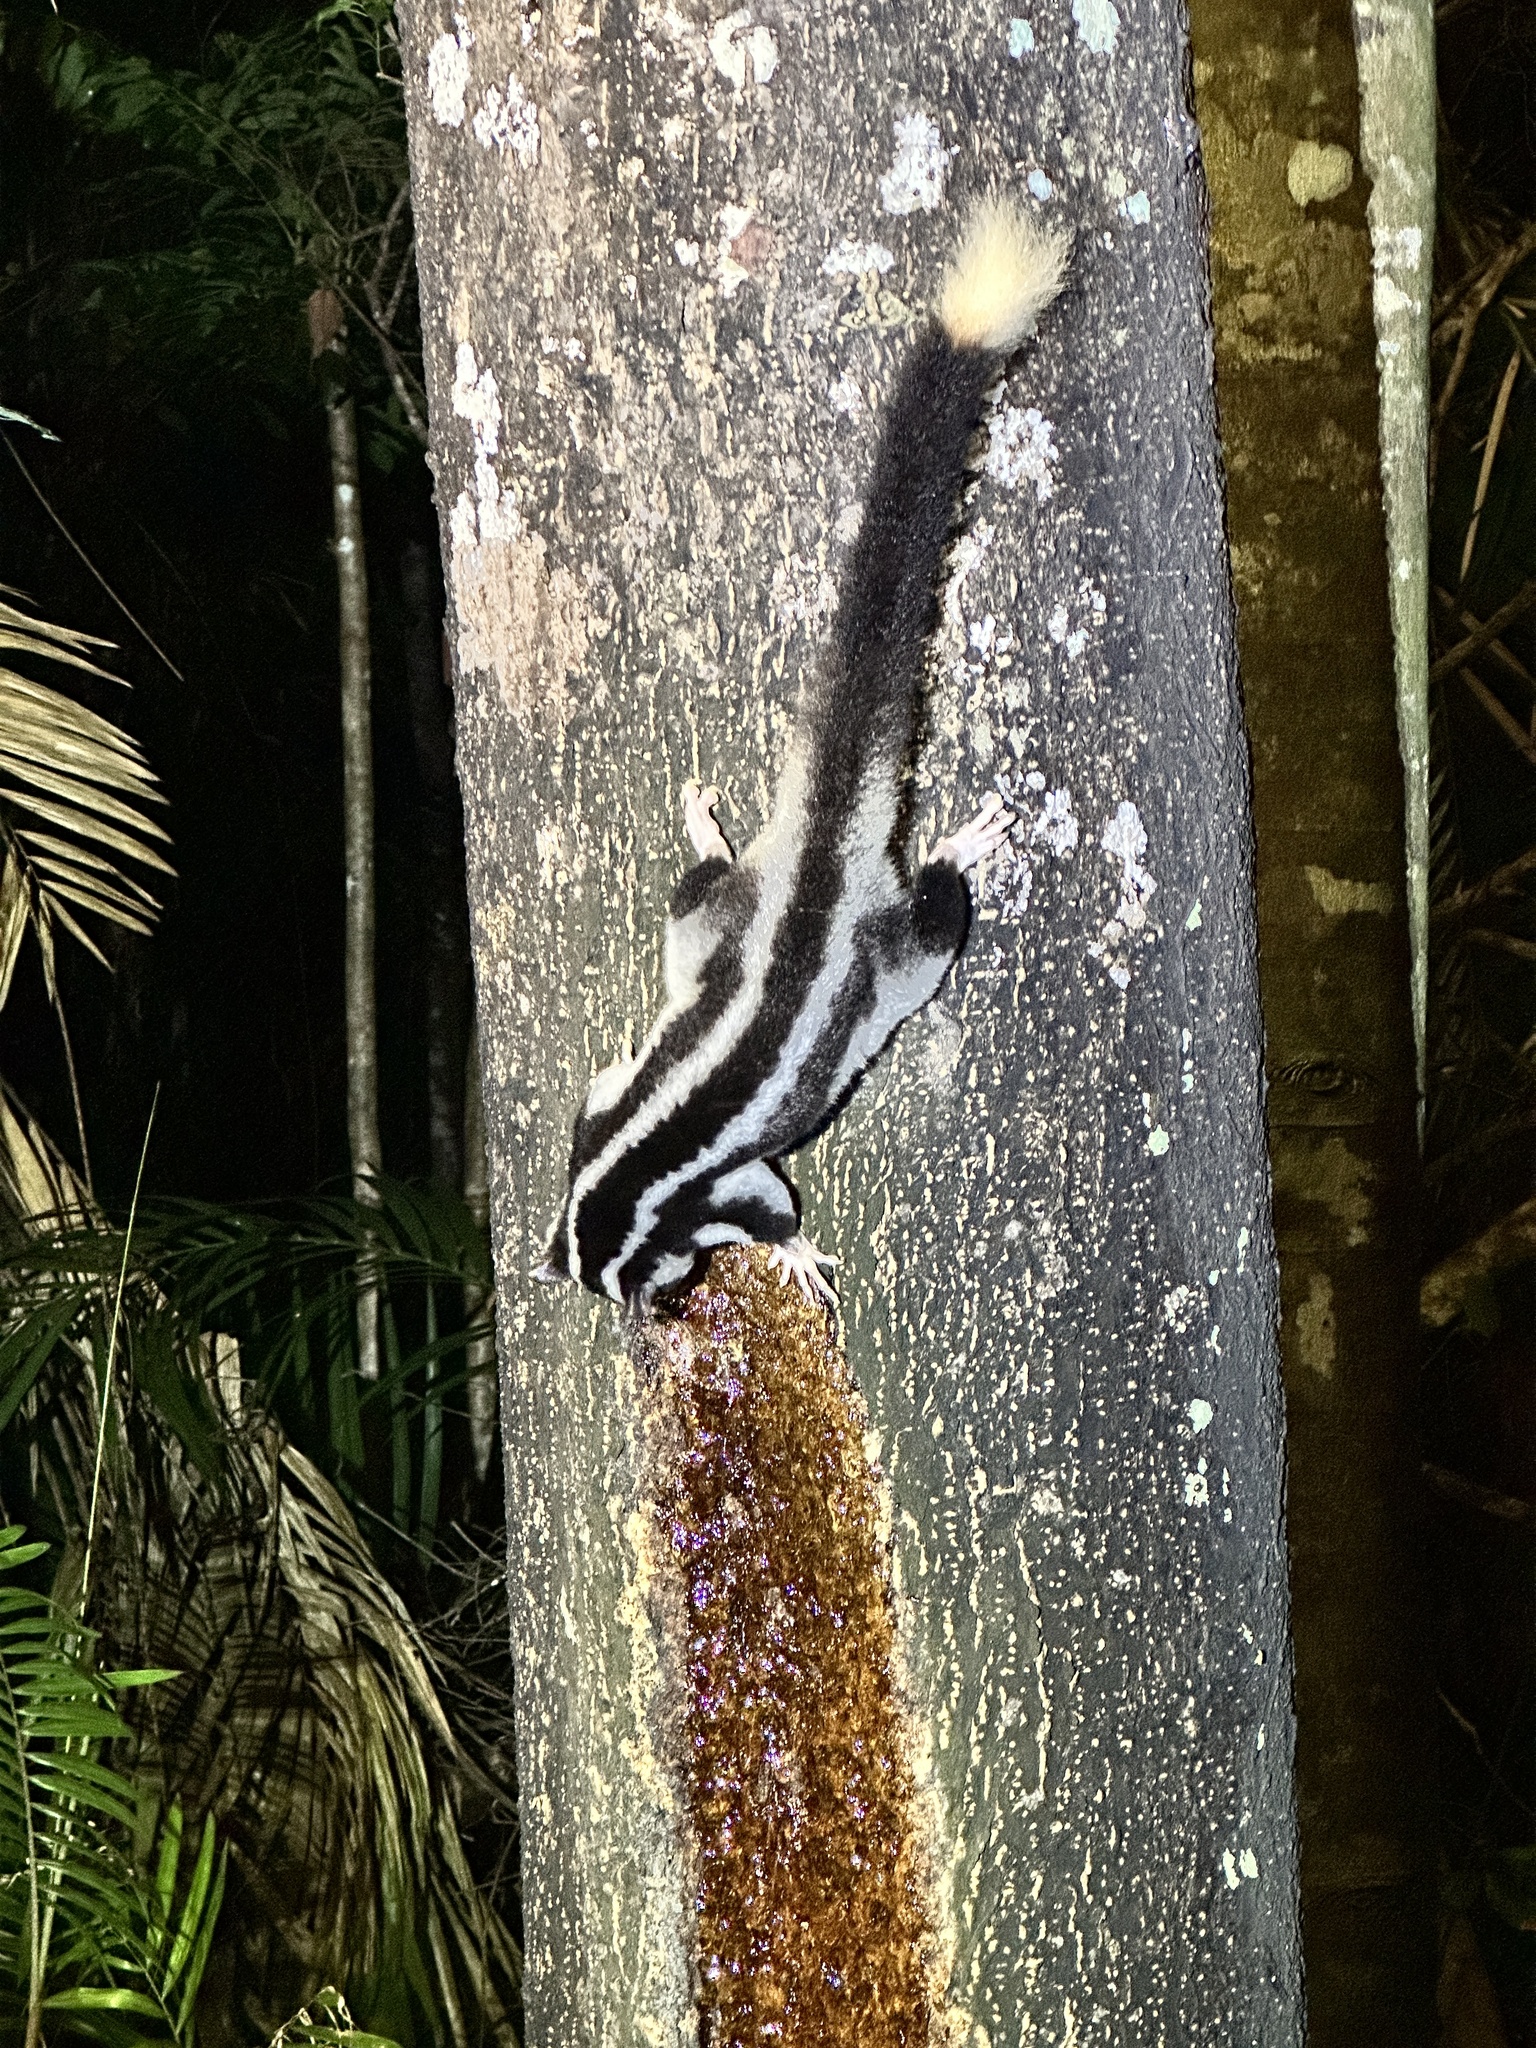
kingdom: Animalia
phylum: Chordata
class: Mammalia
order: Diprotodontia
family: Petauridae
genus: Dactylopsila
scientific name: Dactylopsila trivirgata
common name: Striped possum
